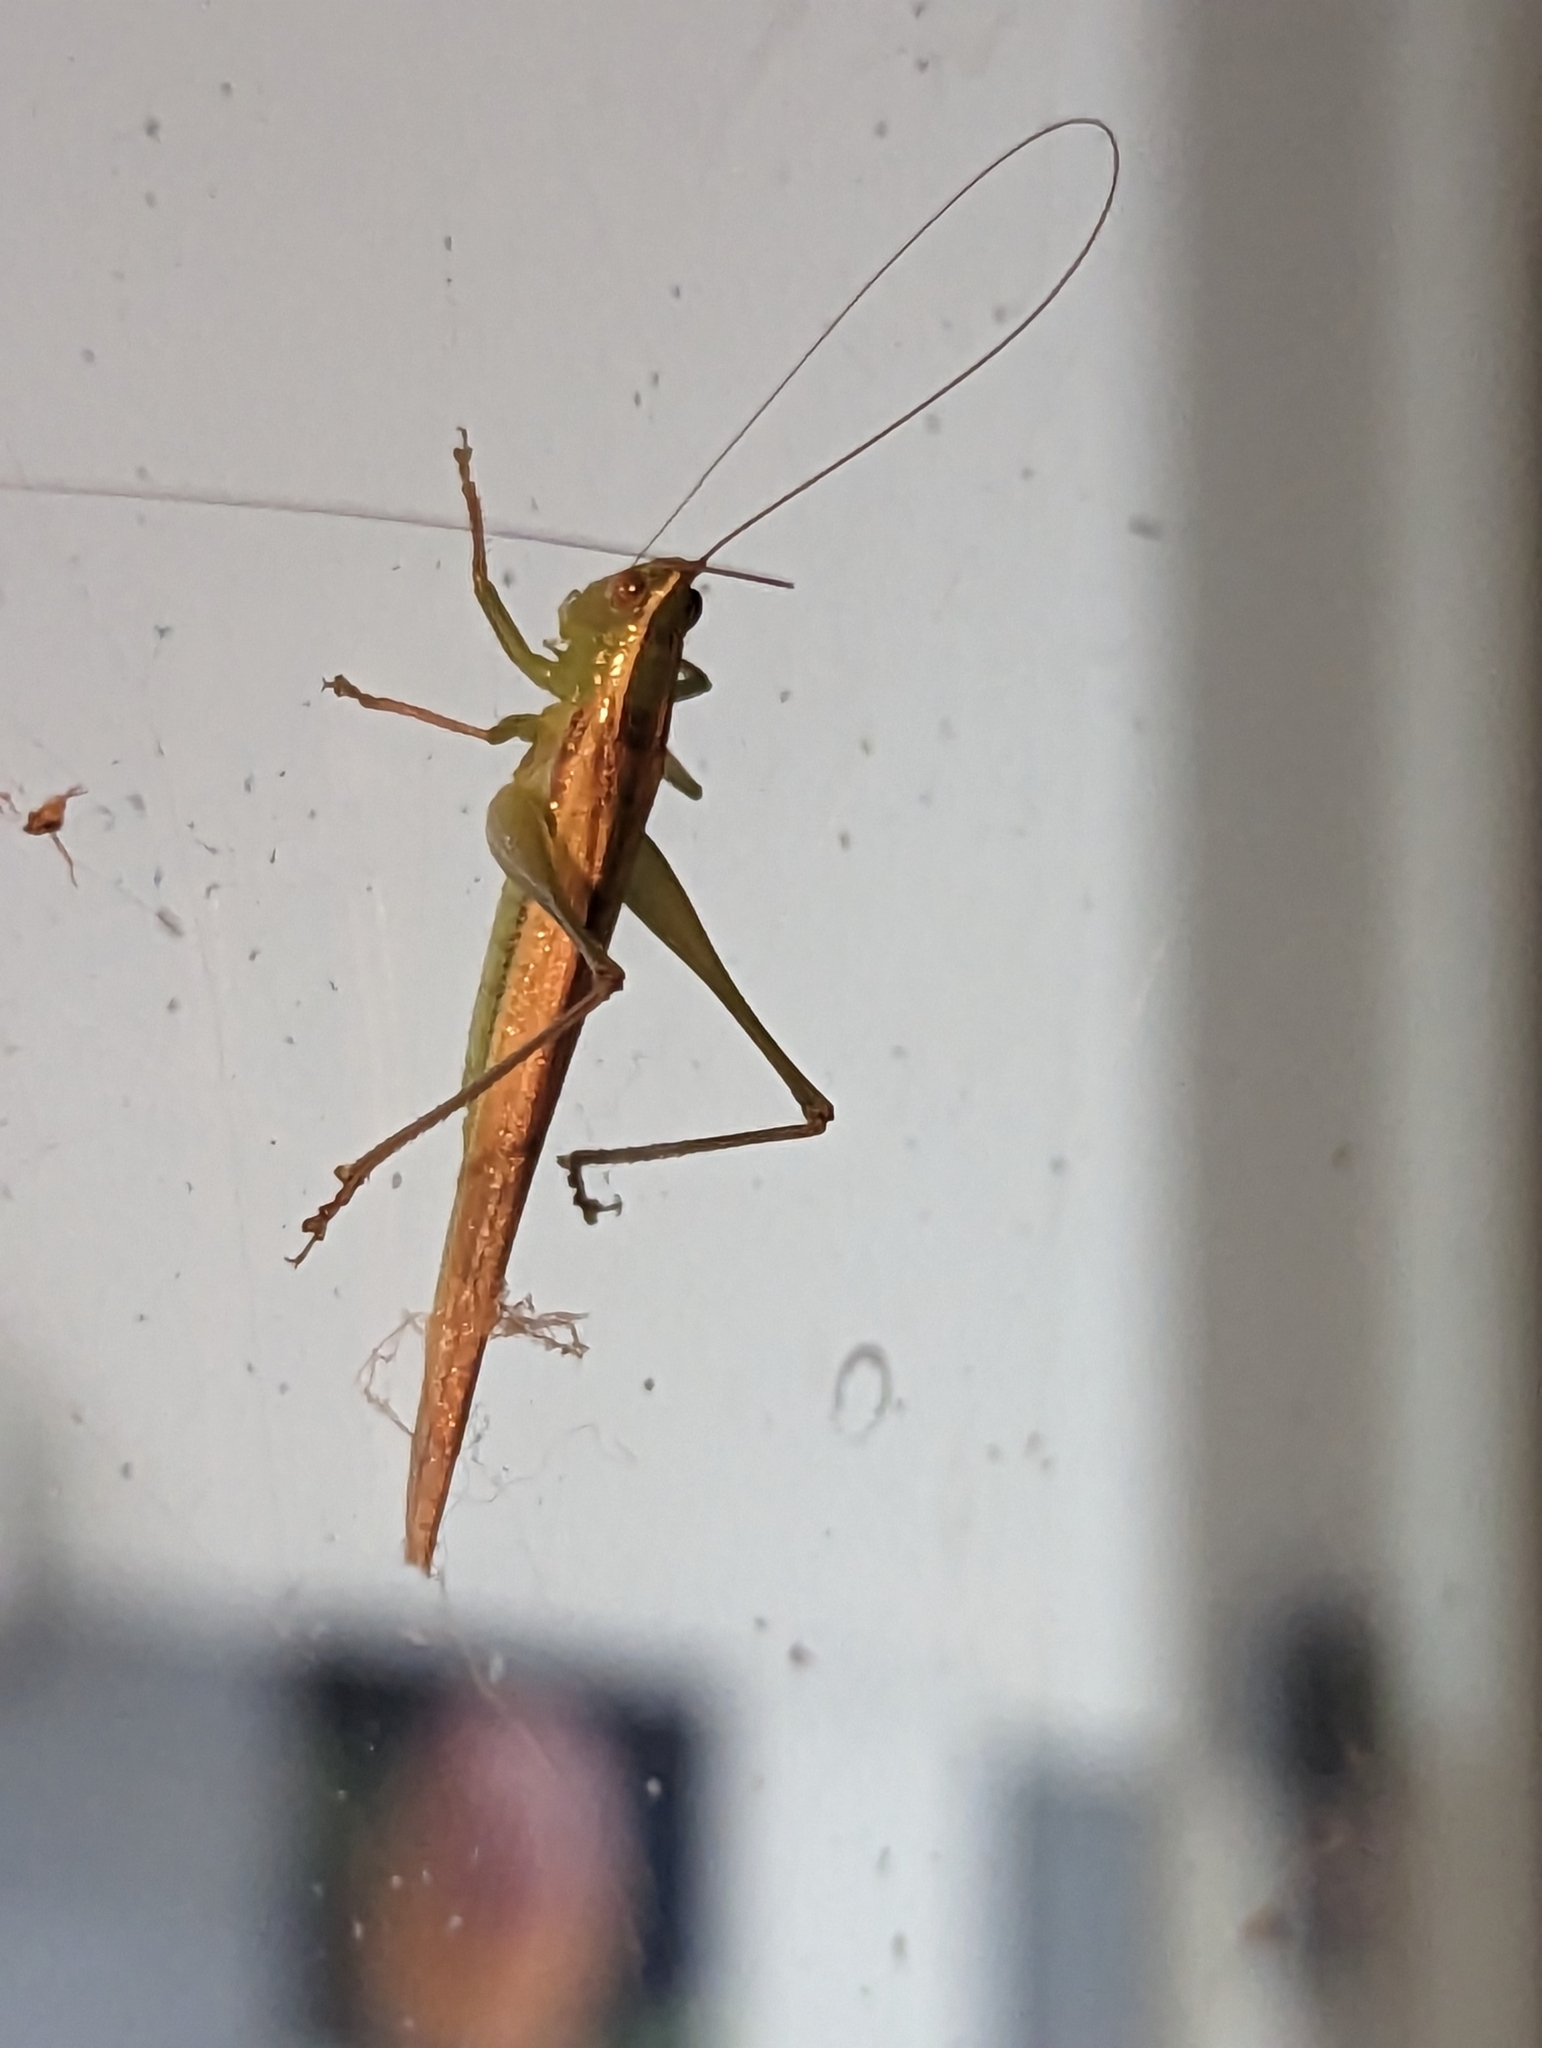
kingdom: Animalia
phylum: Arthropoda
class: Insecta
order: Orthoptera
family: Tettigoniidae
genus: Conocephalus
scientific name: Conocephalus upoluensis
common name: Upolu meadow katydid
